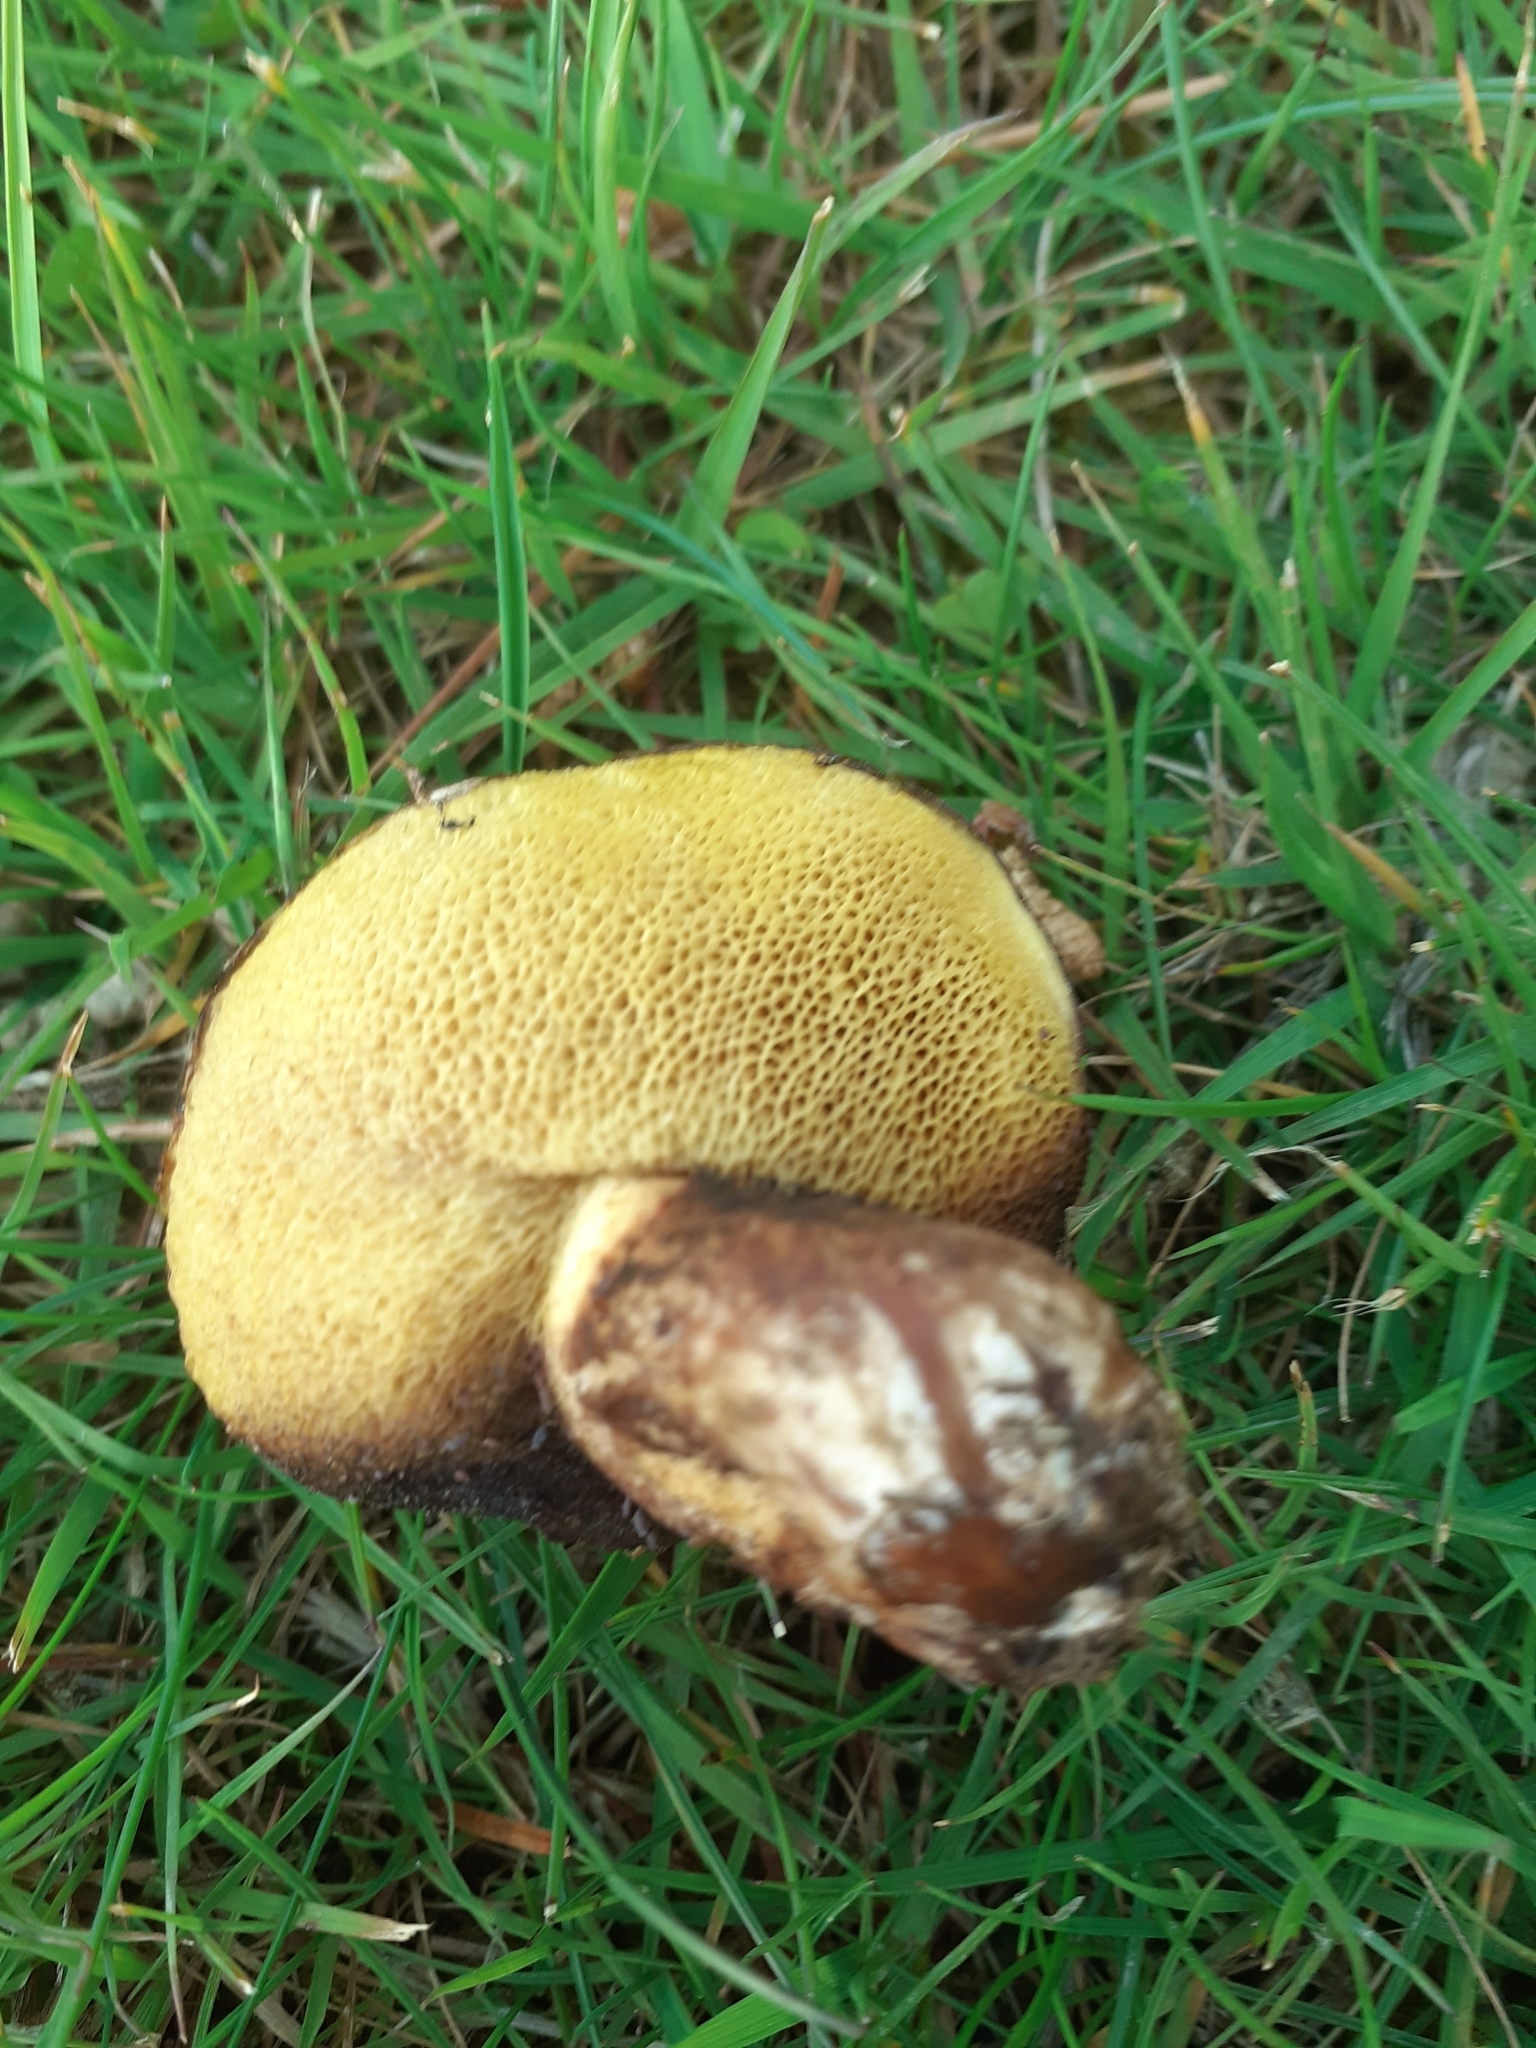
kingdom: Fungi
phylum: Basidiomycota
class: Agaricomycetes
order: Boletales
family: Suillaceae
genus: Suillus
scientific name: Suillus luteus
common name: Slippery jack
